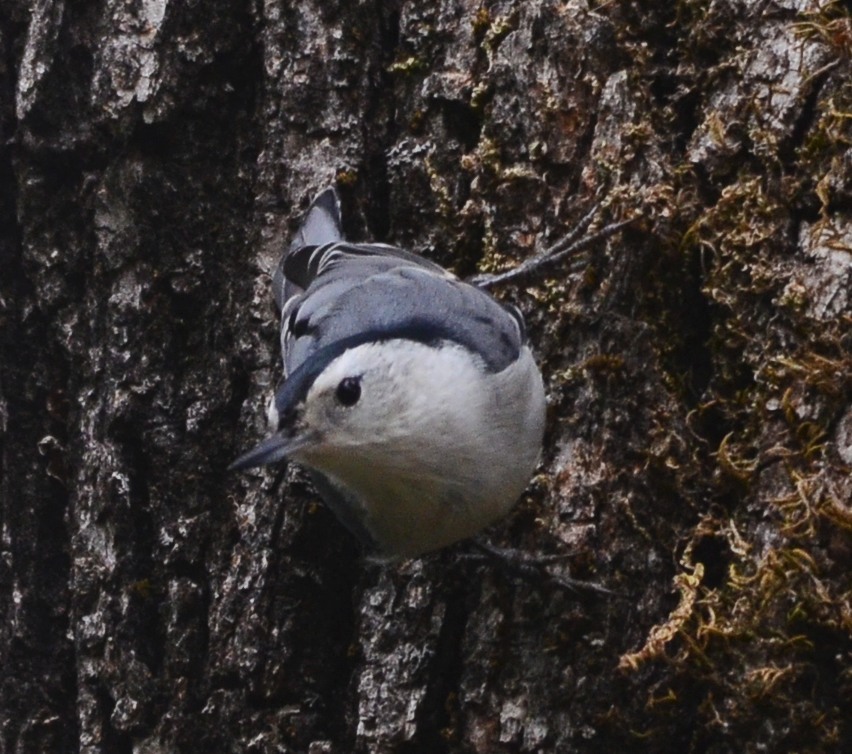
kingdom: Animalia
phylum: Chordata
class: Aves
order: Passeriformes
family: Sittidae
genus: Sitta
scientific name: Sitta carolinensis
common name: White-breasted nuthatch
